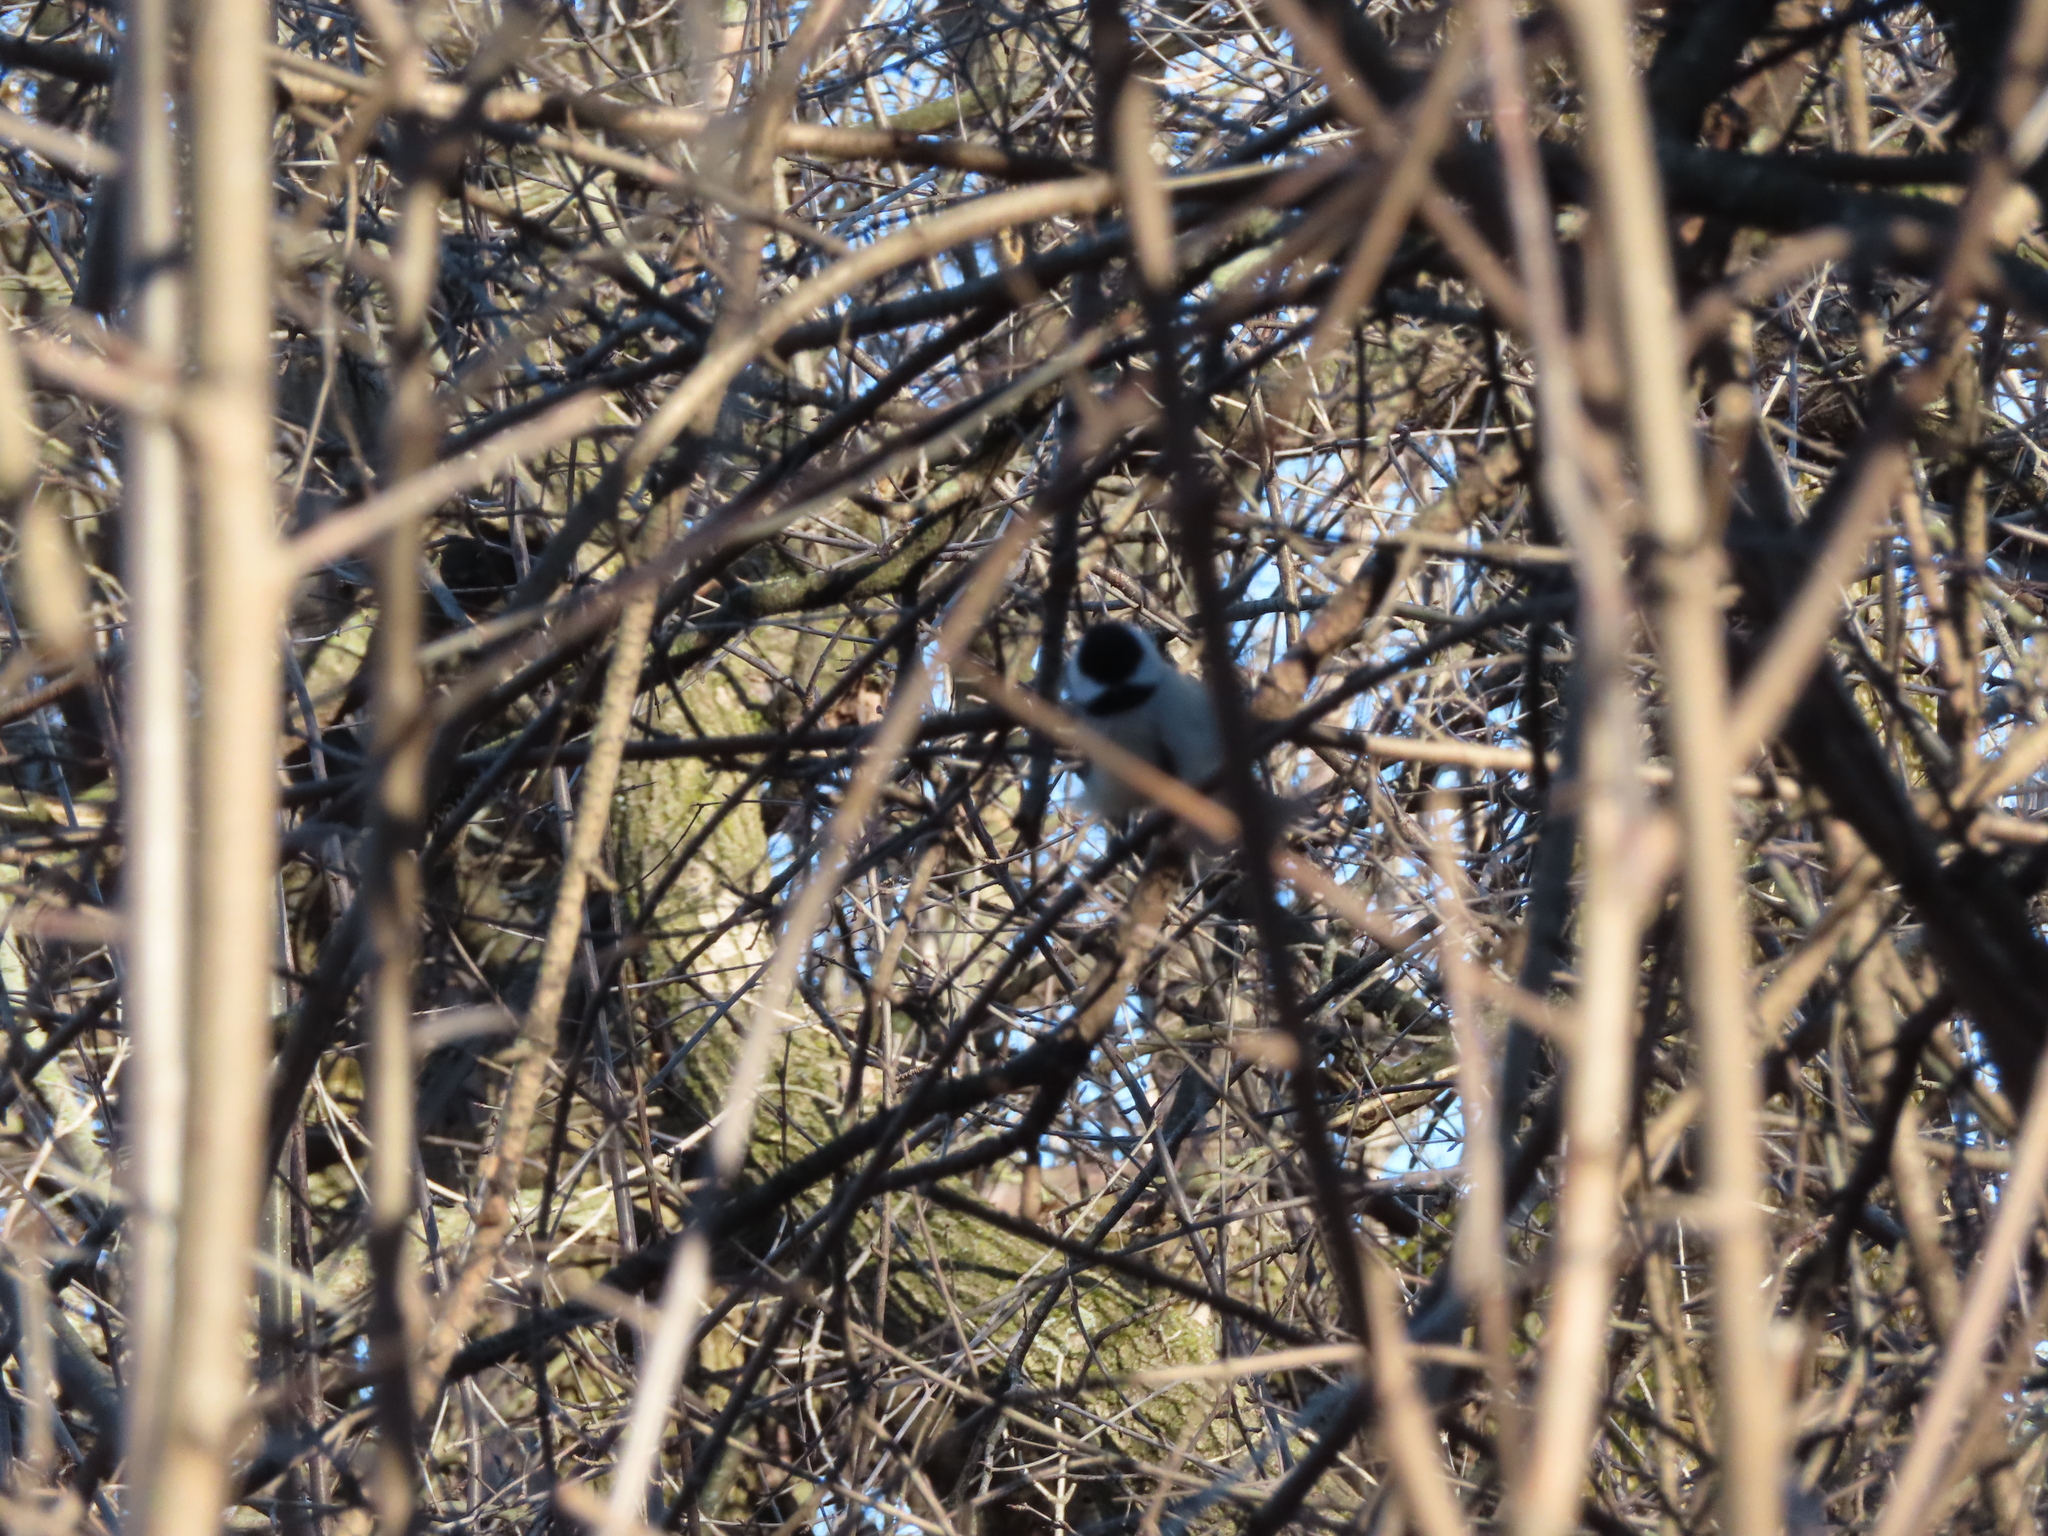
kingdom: Animalia
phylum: Chordata
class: Aves
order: Passeriformes
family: Paridae
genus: Poecile
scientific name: Poecile atricapillus
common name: Black-capped chickadee
